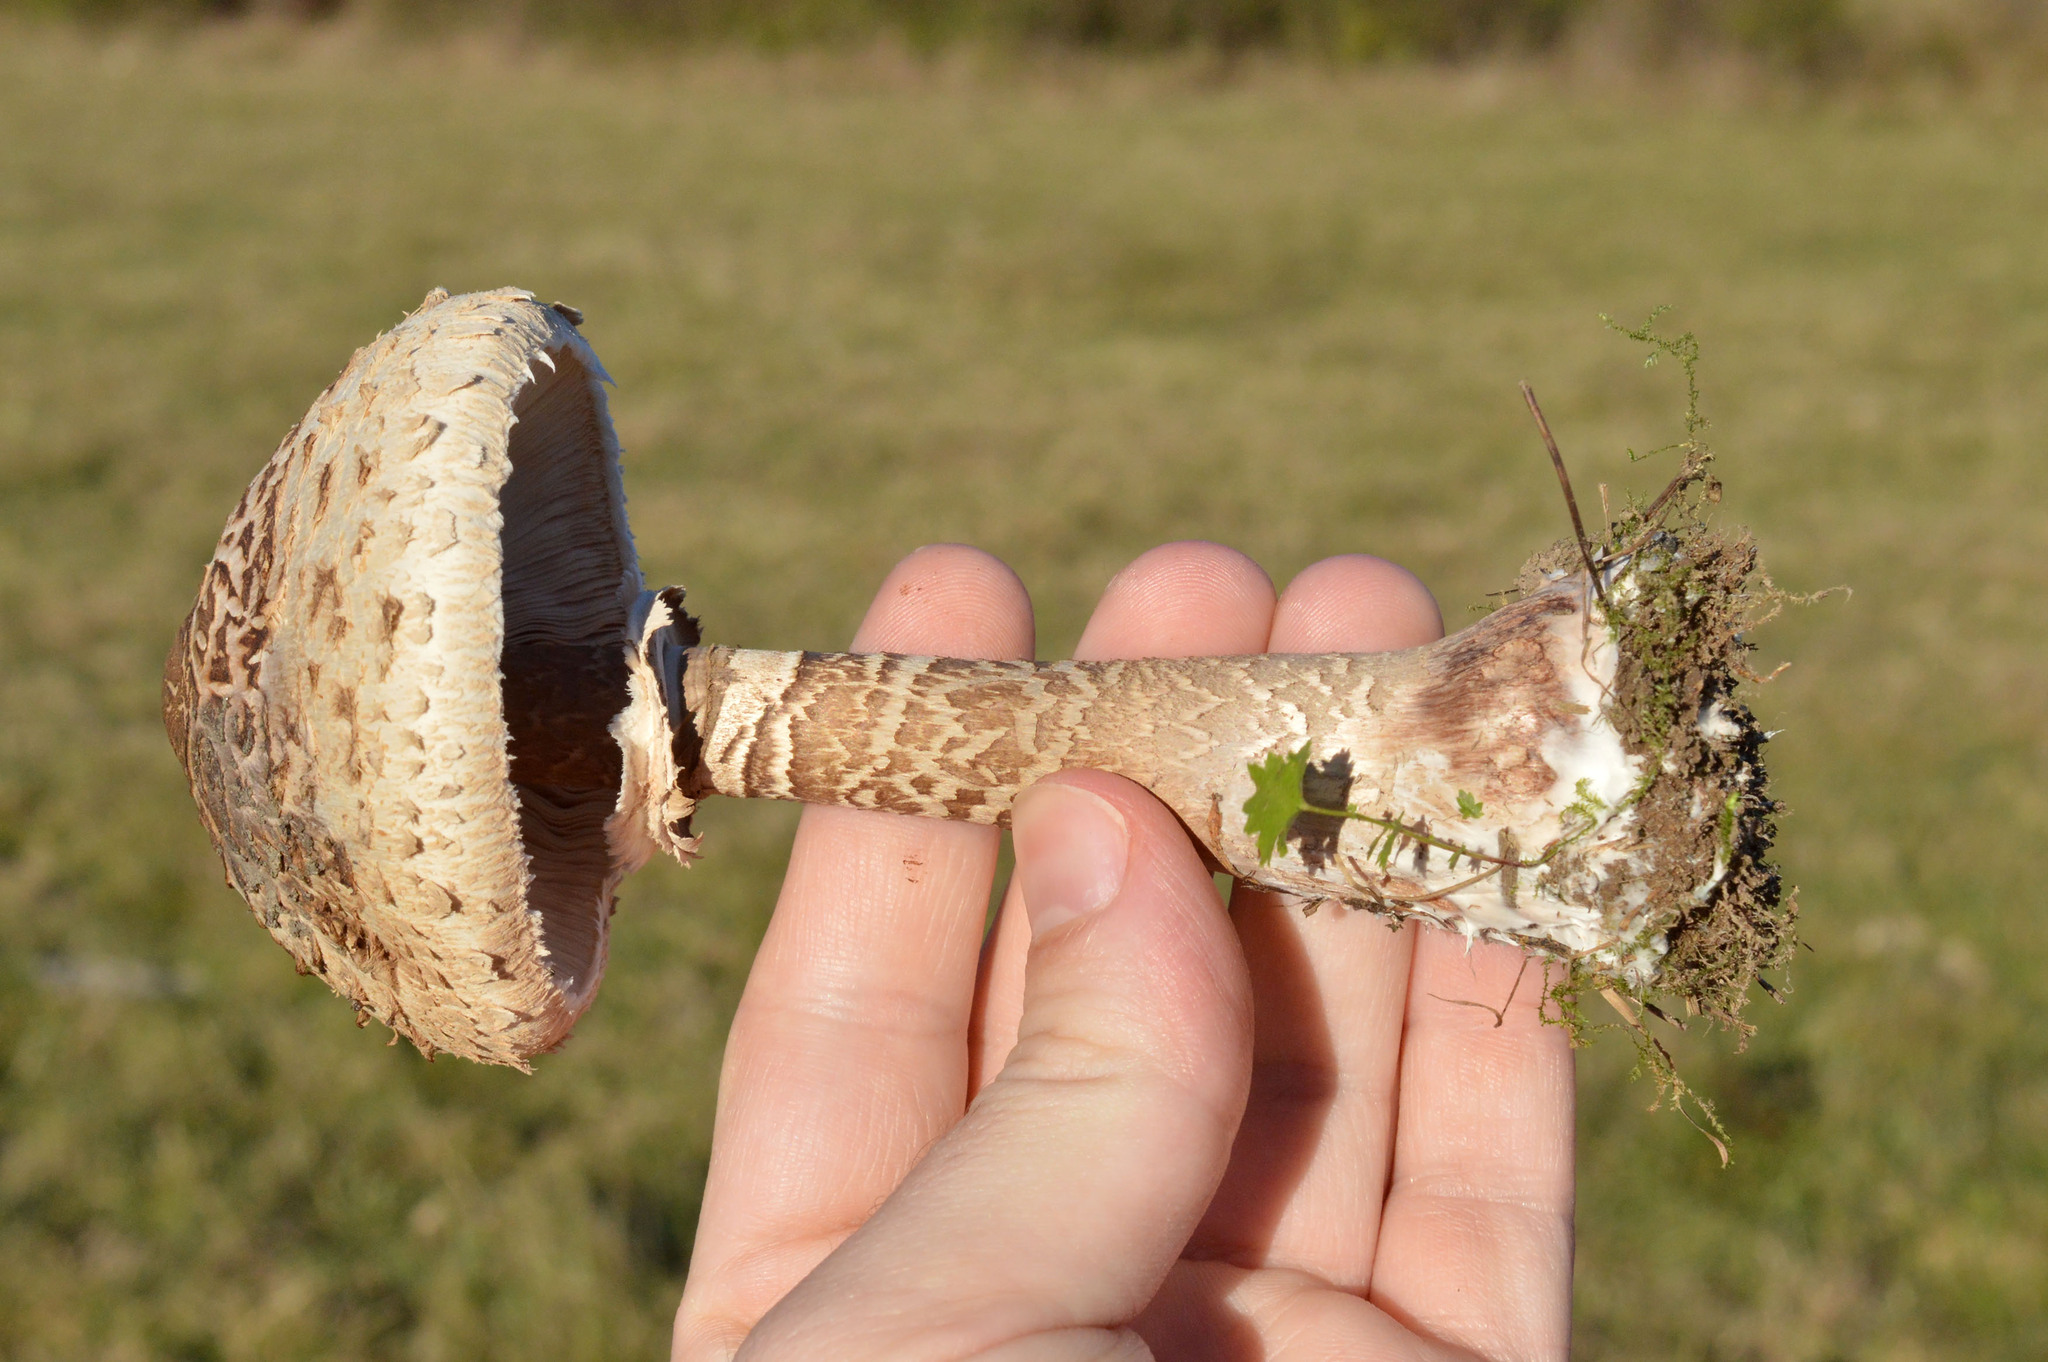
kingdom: Fungi
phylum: Basidiomycota
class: Agaricomycetes
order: Agaricales
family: Agaricaceae
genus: Macrolepiota
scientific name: Macrolepiota procera
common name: Parasol
